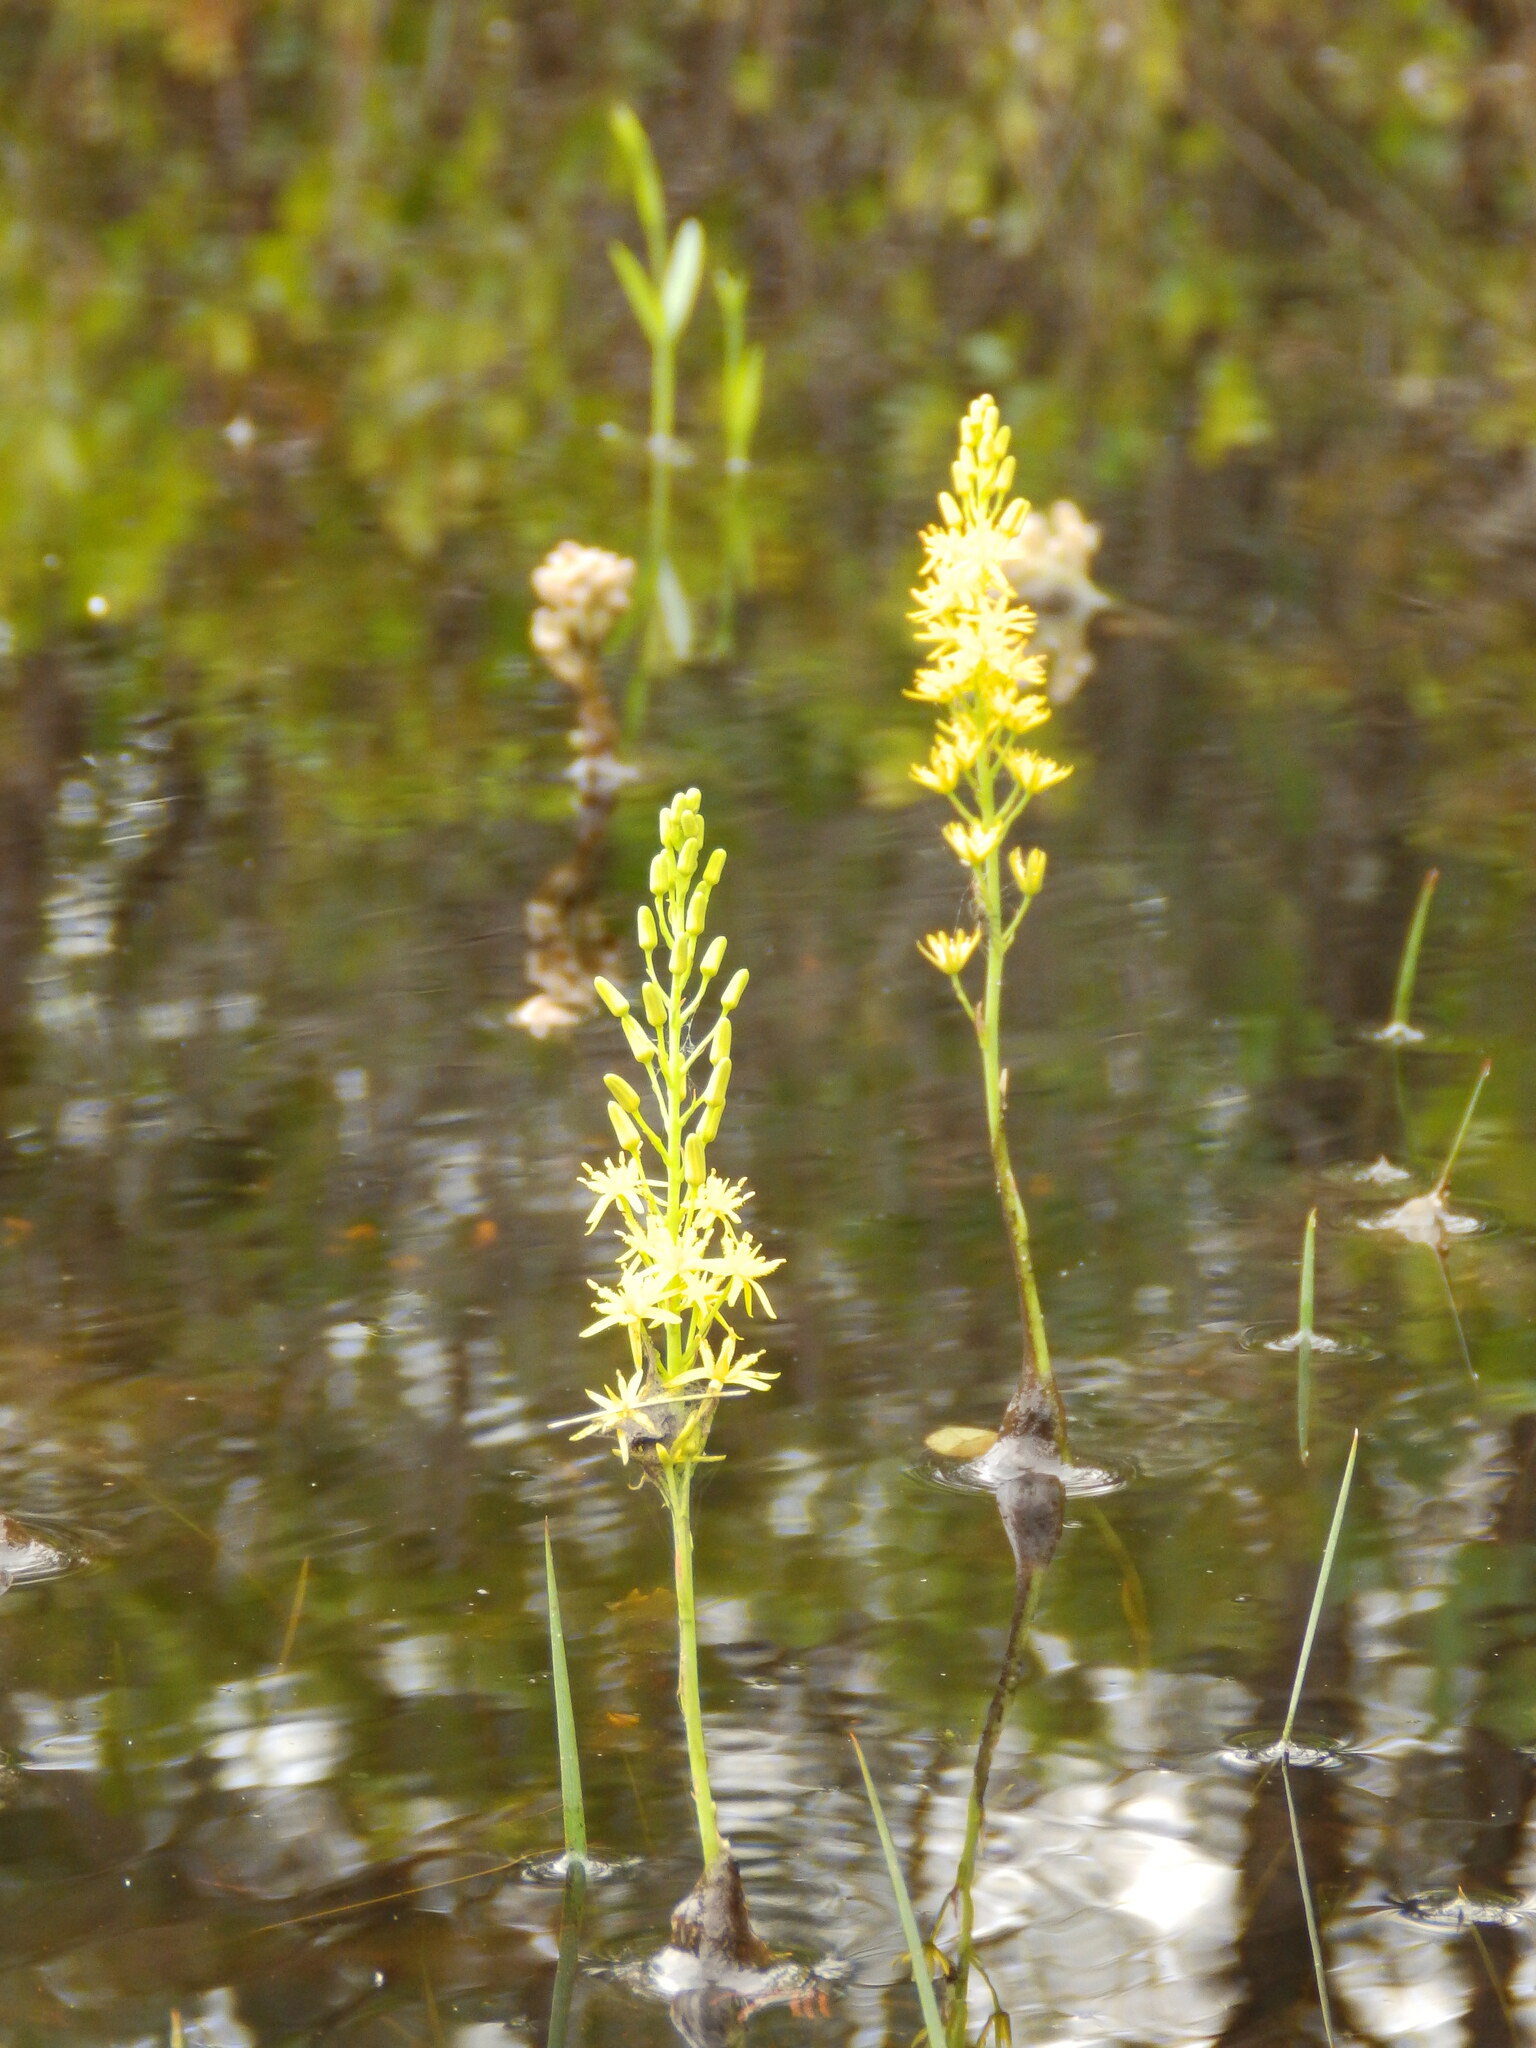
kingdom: Plantae
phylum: Tracheophyta
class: Liliopsida
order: Dioscoreales
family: Nartheciaceae
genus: Narthecium
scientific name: Narthecium americanum
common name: Bog-asphodel
